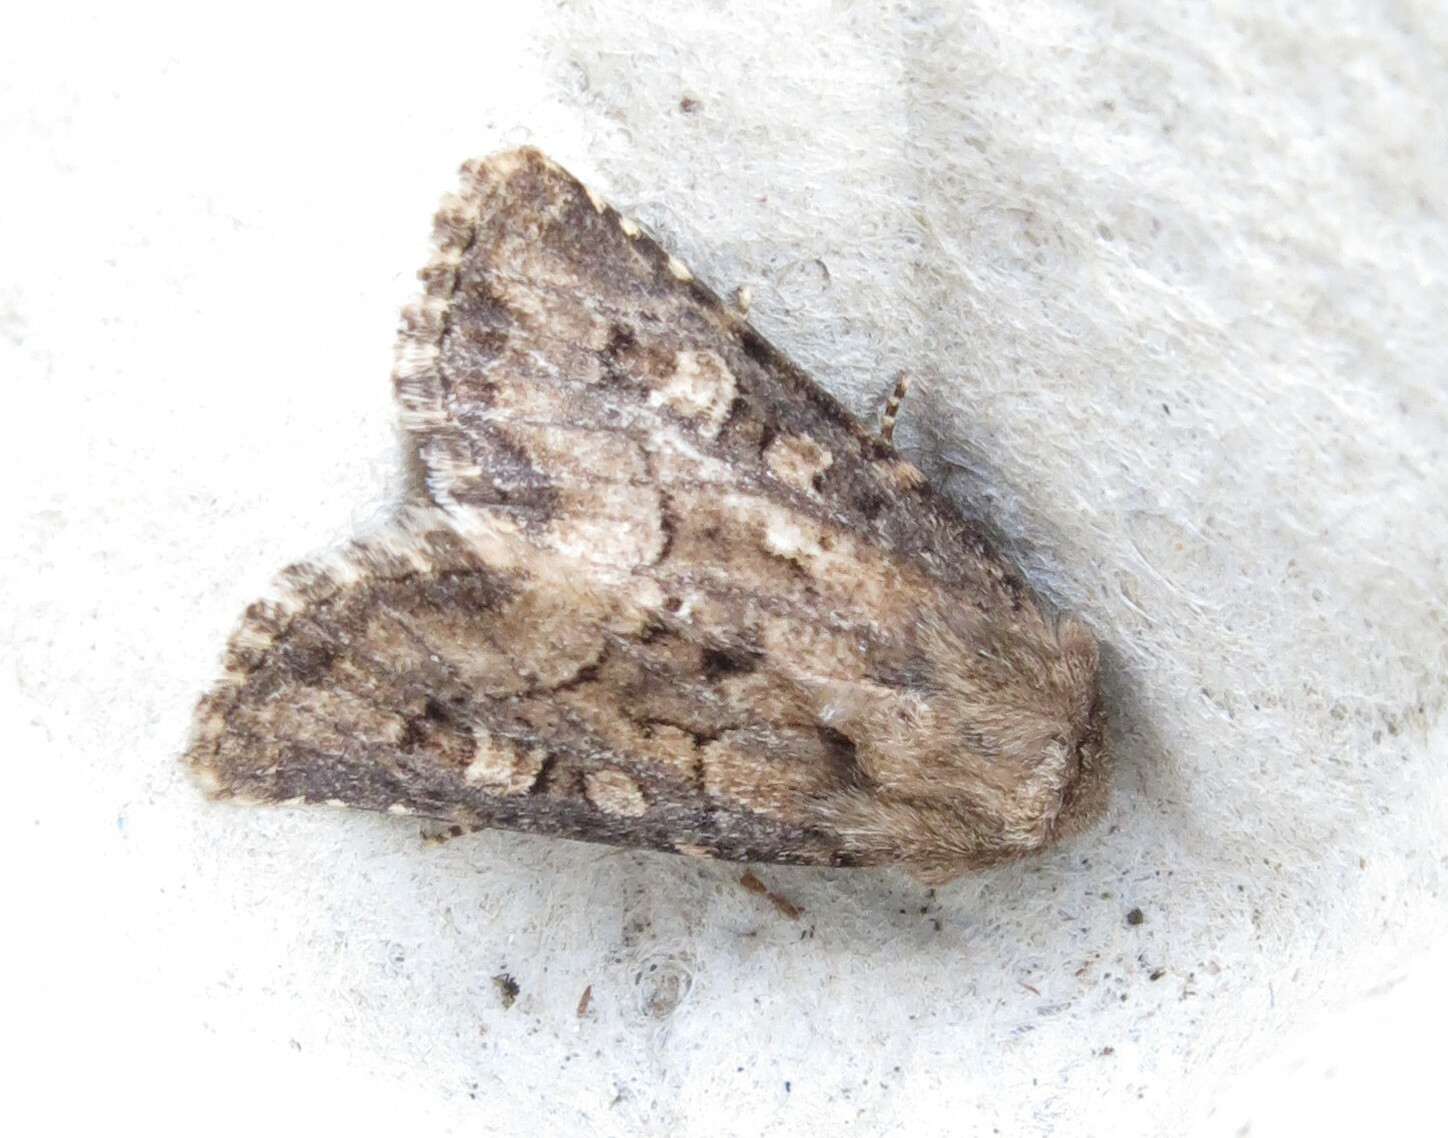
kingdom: Animalia
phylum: Arthropoda
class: Insecta
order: Lepidoptera
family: Noctuidae
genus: Luperina
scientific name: Luperina testacea
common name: Flounced rustic
